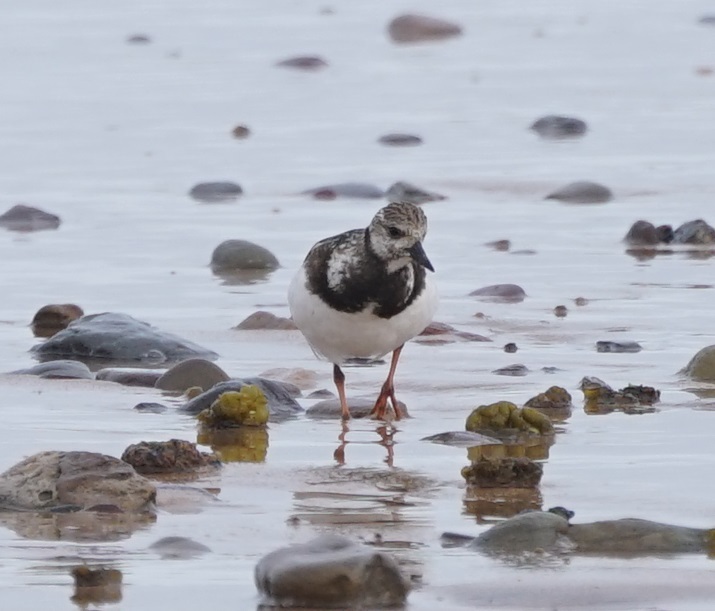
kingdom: Animalia
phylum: Chordata
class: Aves
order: Charadriiformes
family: Scolopacidae
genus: Arenaria
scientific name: Arenaria interpres
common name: Ruddy turnstone
